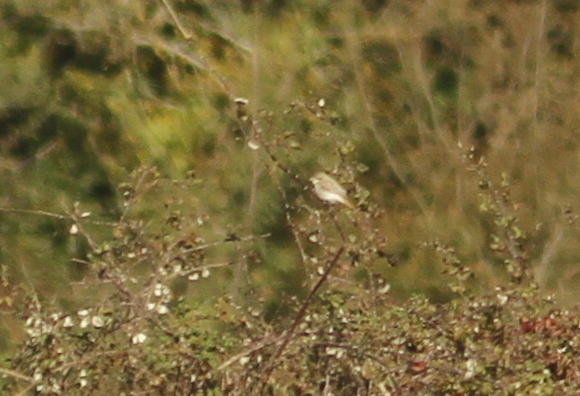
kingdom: Animalia
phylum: Chordata
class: Aves
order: Passeriformes
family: Laniidae
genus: Lanius
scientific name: Lanius isabellinus
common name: Isabelline shrike
